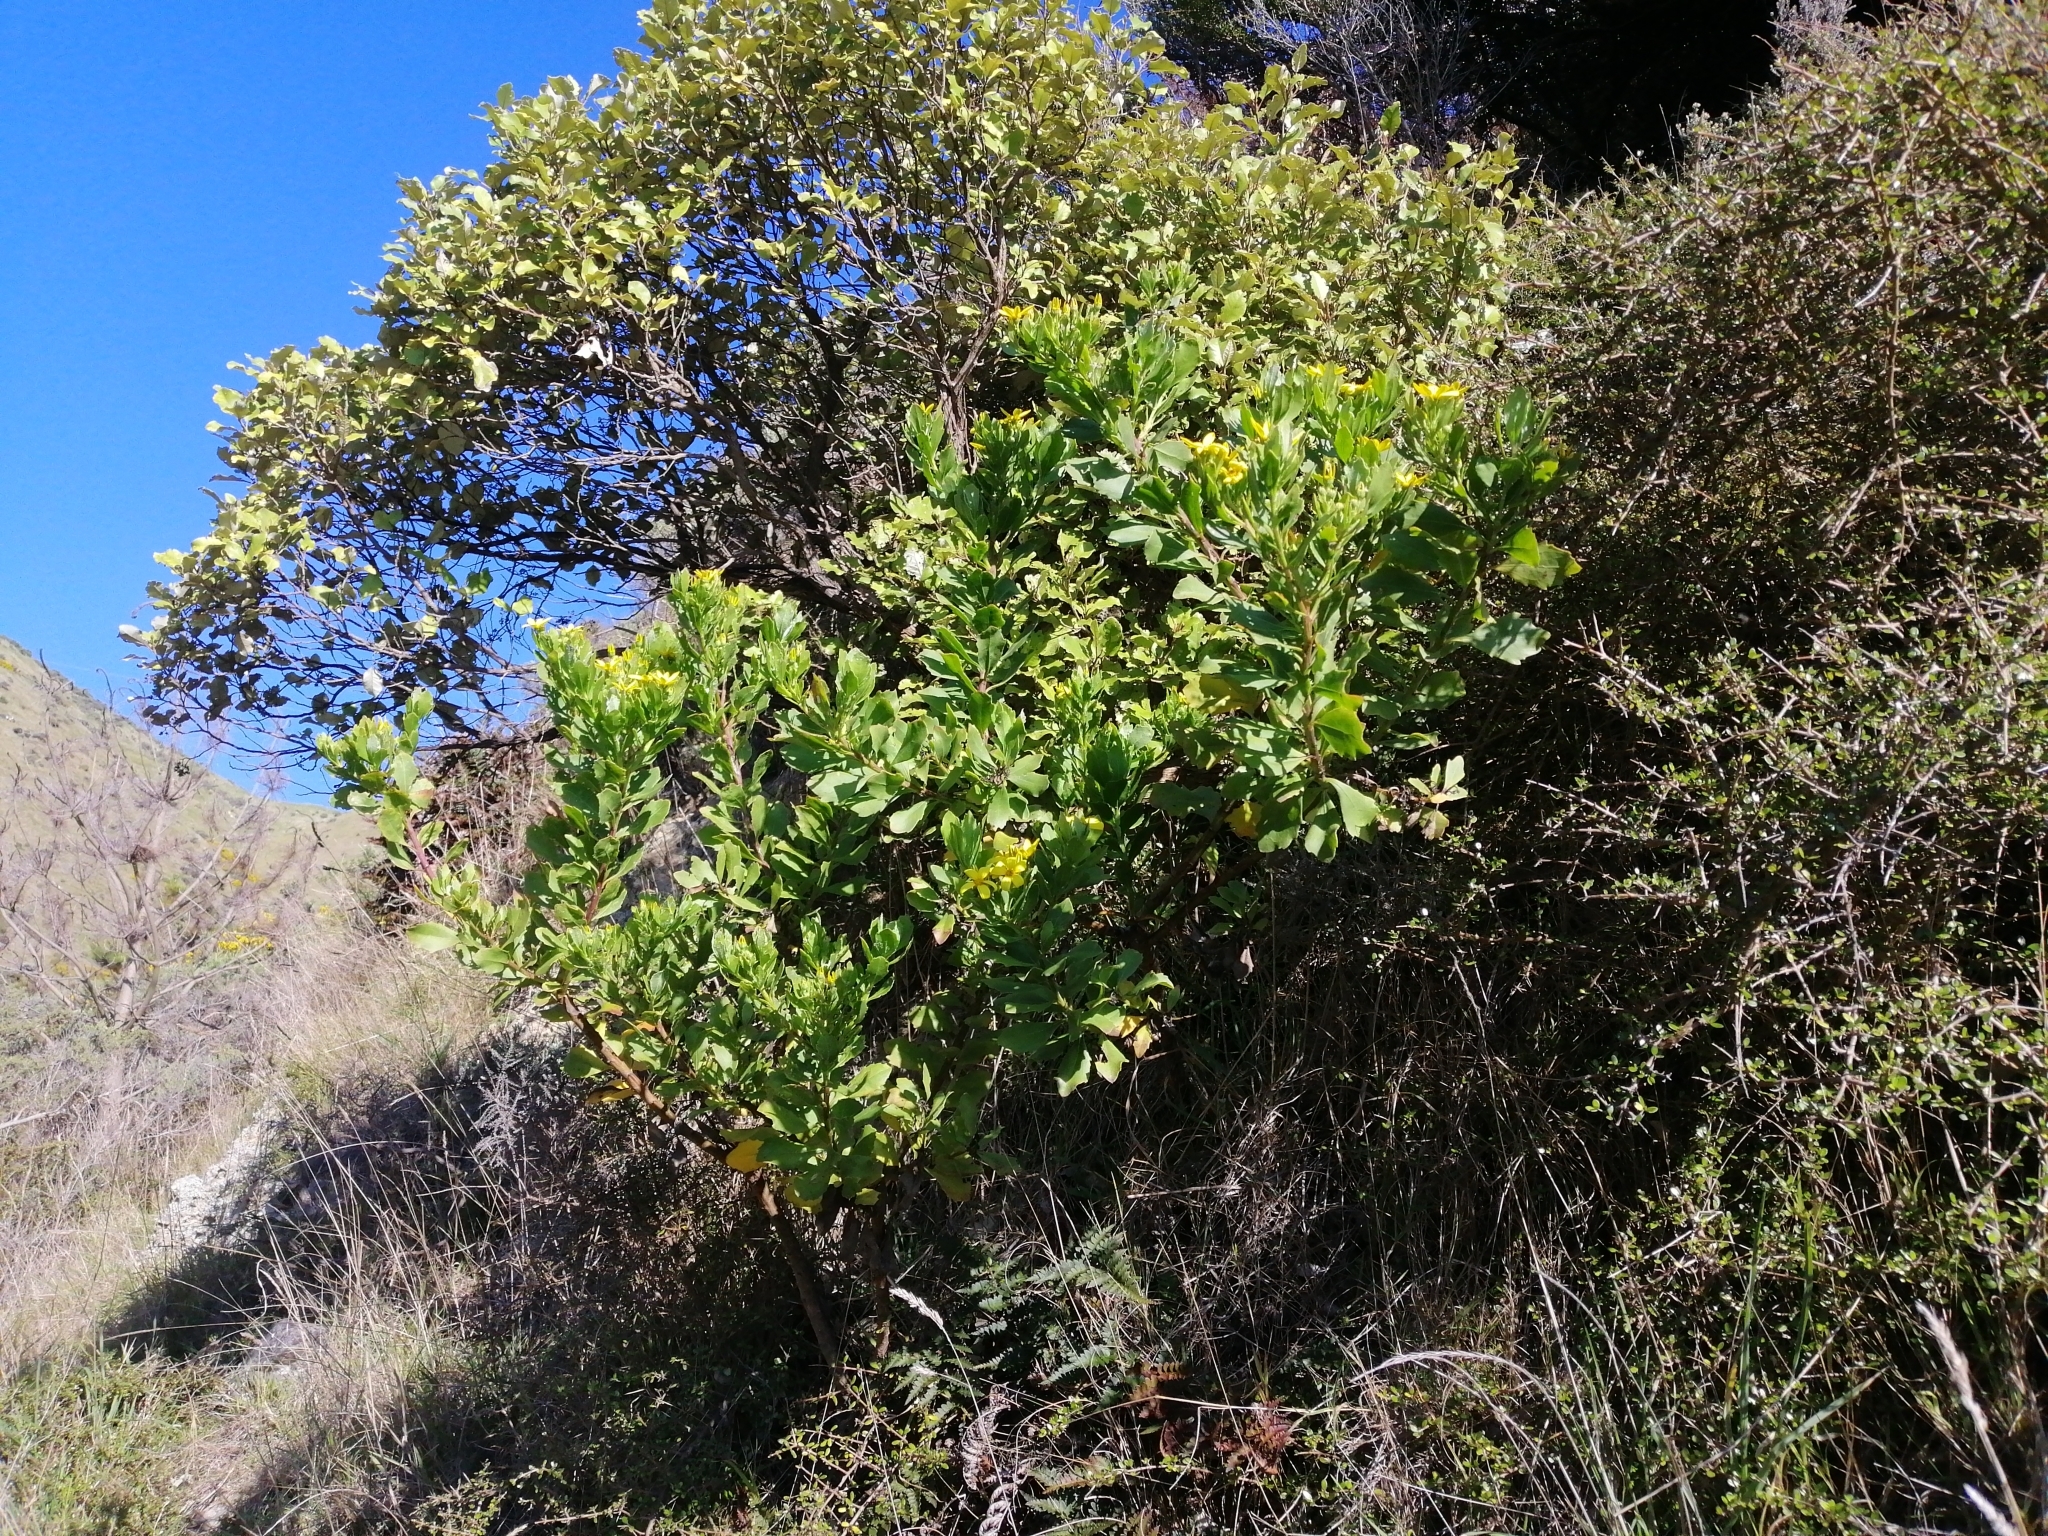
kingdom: Plantae
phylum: Tracheophyta
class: Magnoliopsida
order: Asterales
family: Asteraceae
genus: Osteospermum
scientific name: Osteospermum moniliferum
